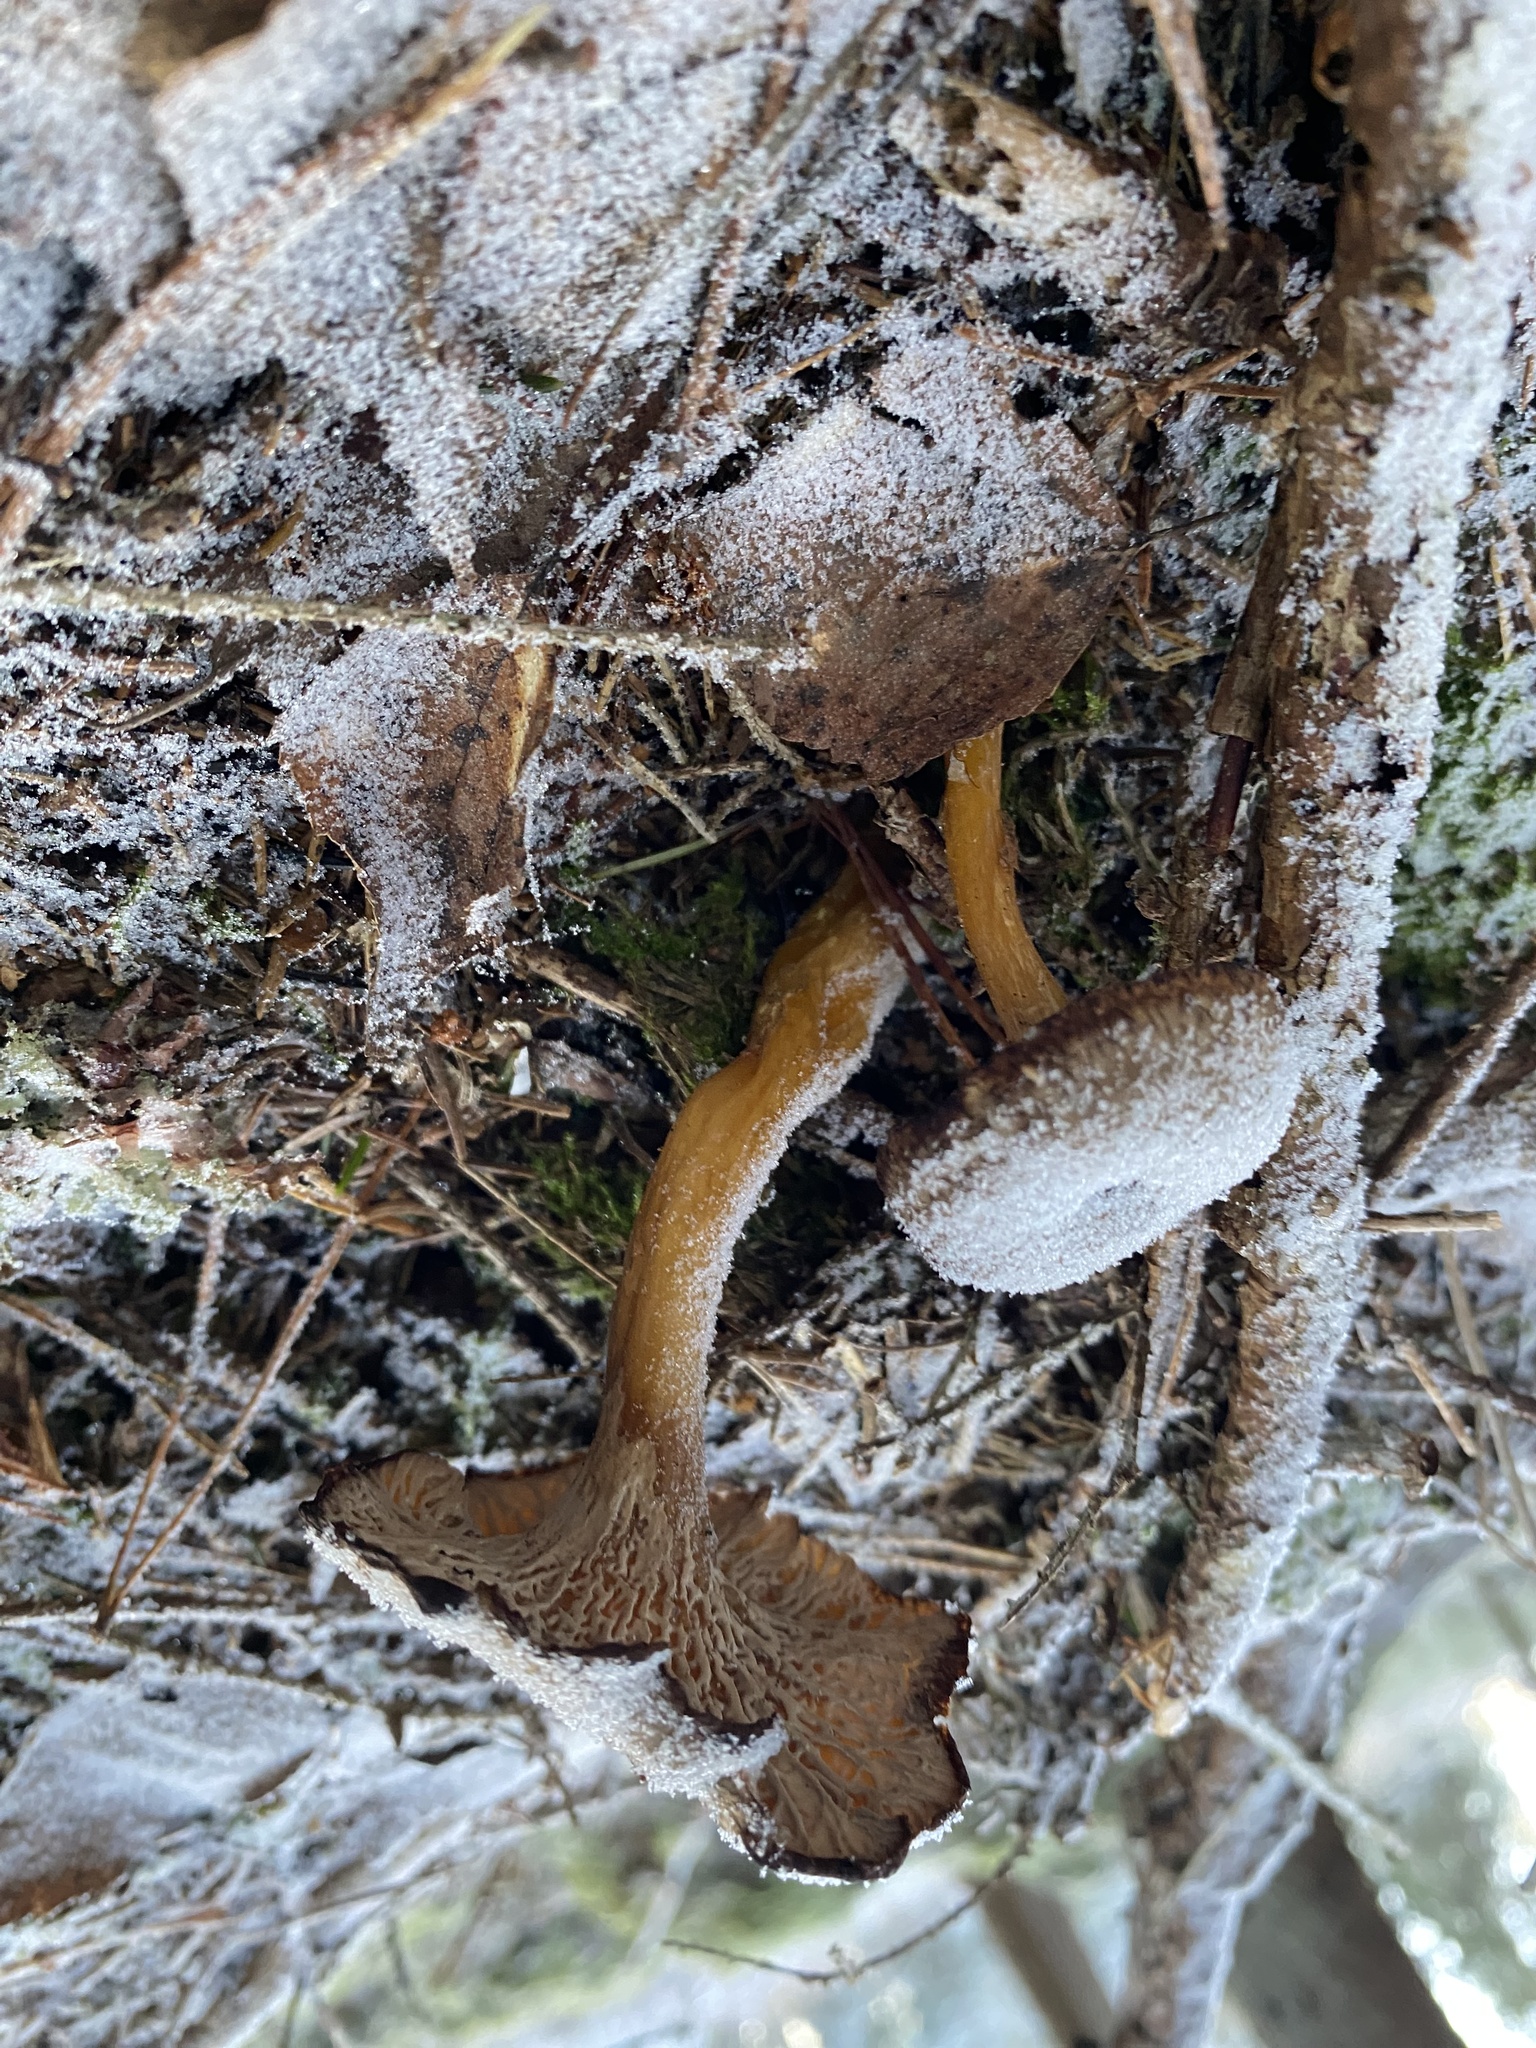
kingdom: Fungi
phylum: Basidiomycota
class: Agaricomycetes
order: Cantharellales
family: Hydnaceae
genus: Craterellus
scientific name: Craterellus tubaeformis
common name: Yellowfoot
